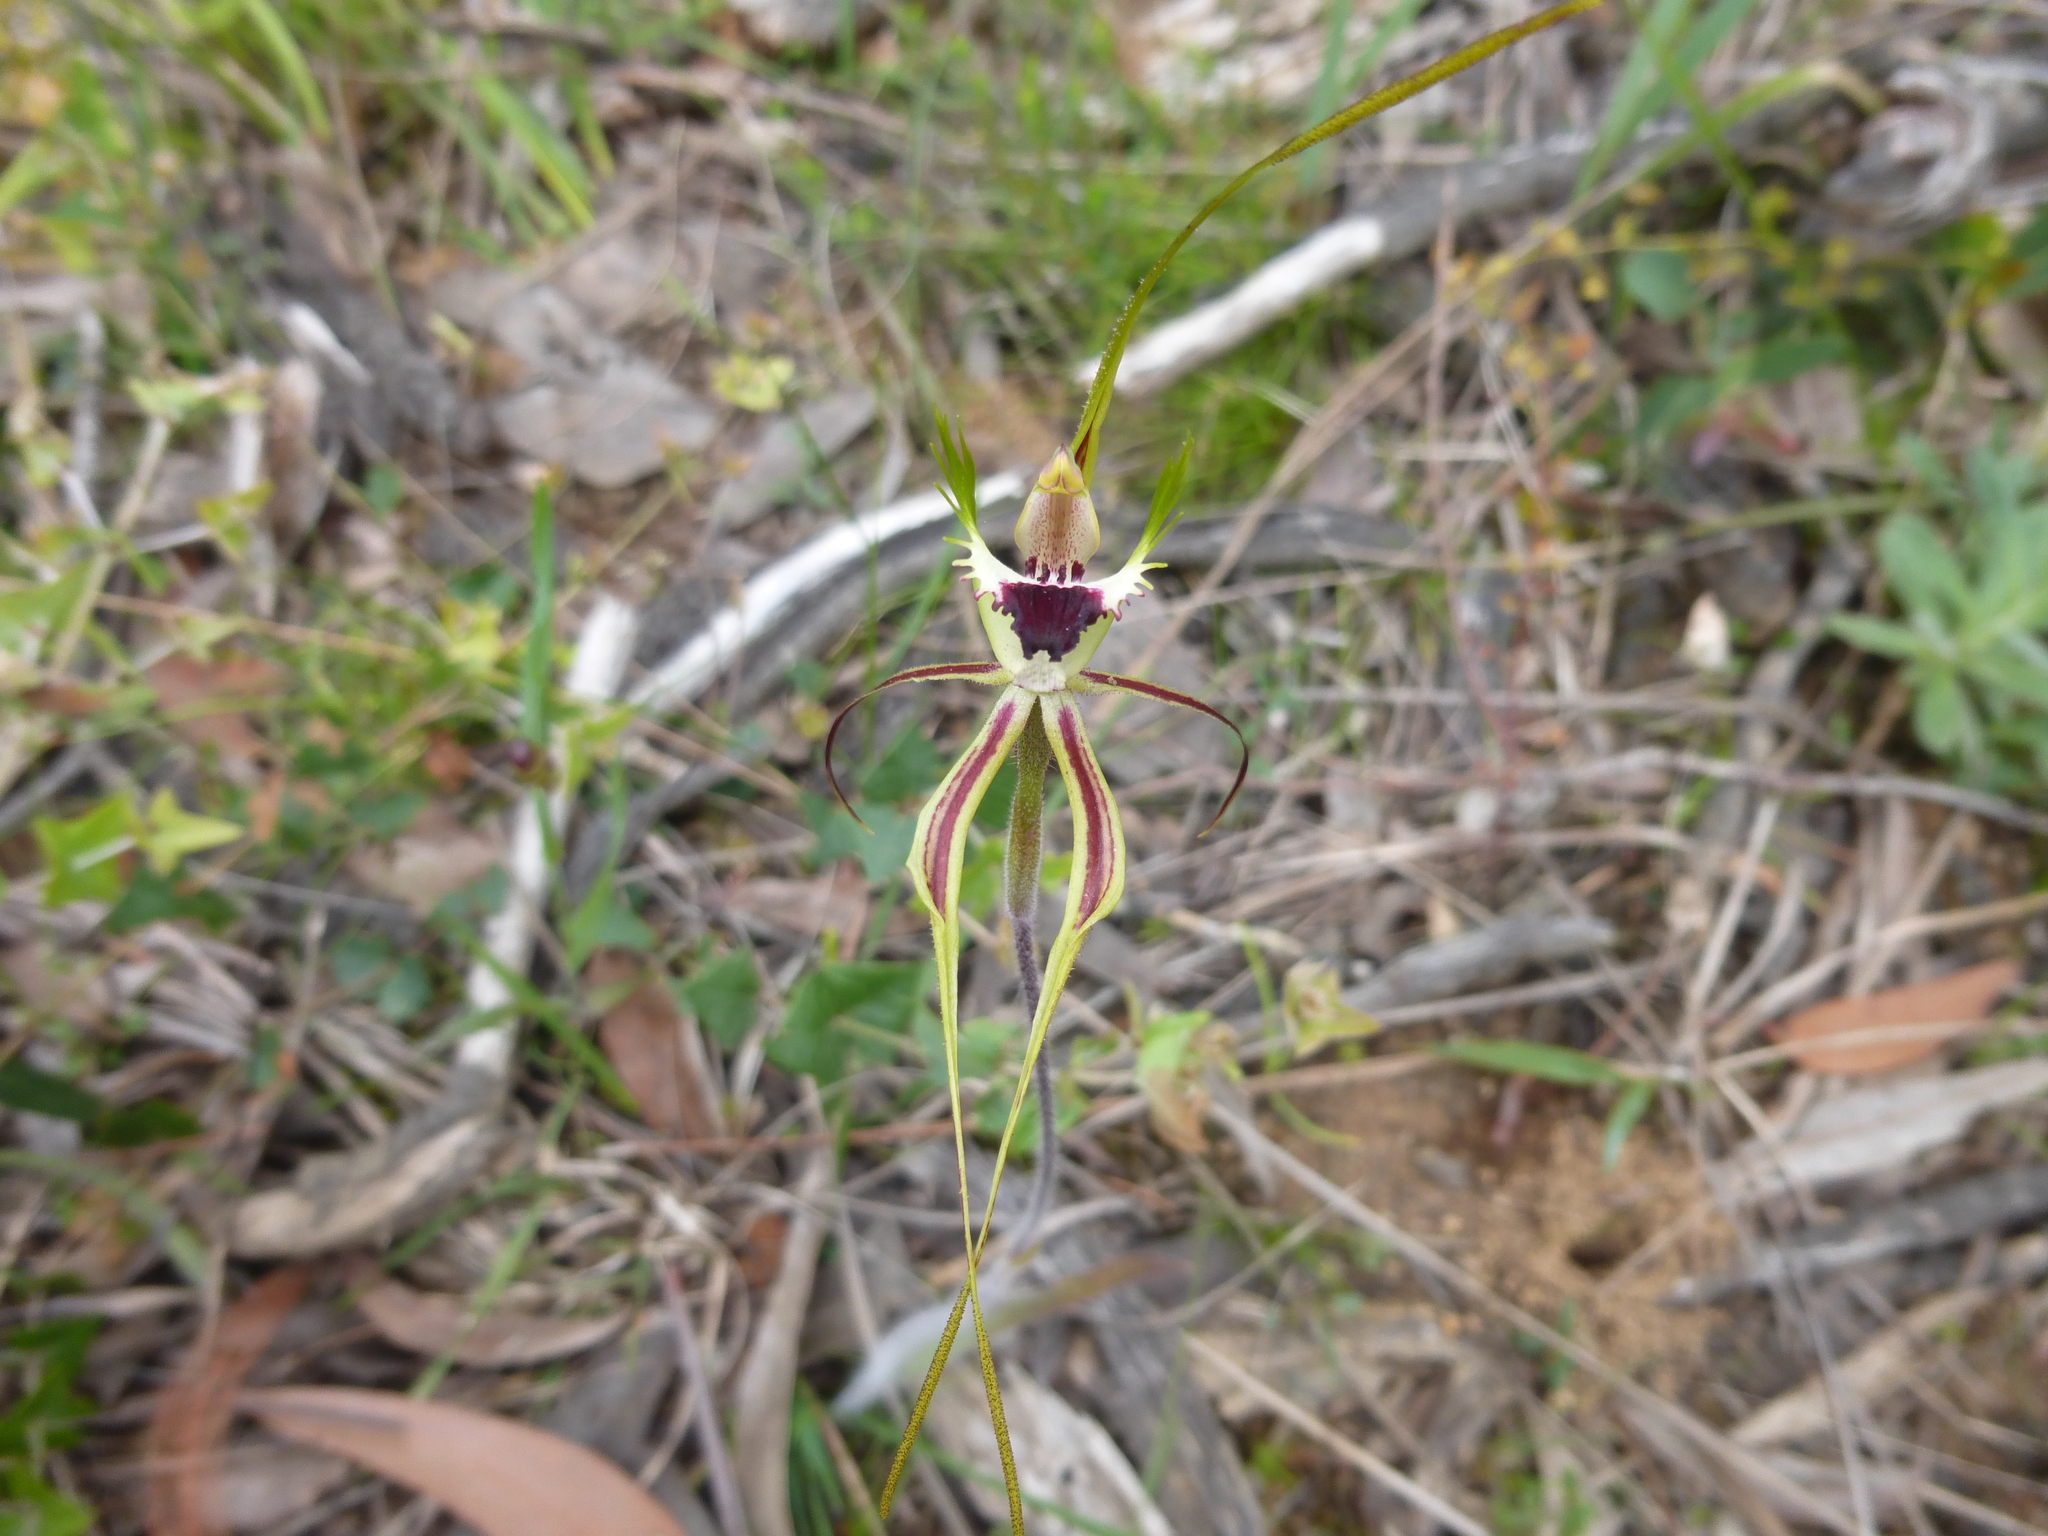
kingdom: Plantae
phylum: Tracheophyta
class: Liliopsida
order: Asparagales
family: Orchidaceae
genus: Caladenia
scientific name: Caladenia tentaculata
